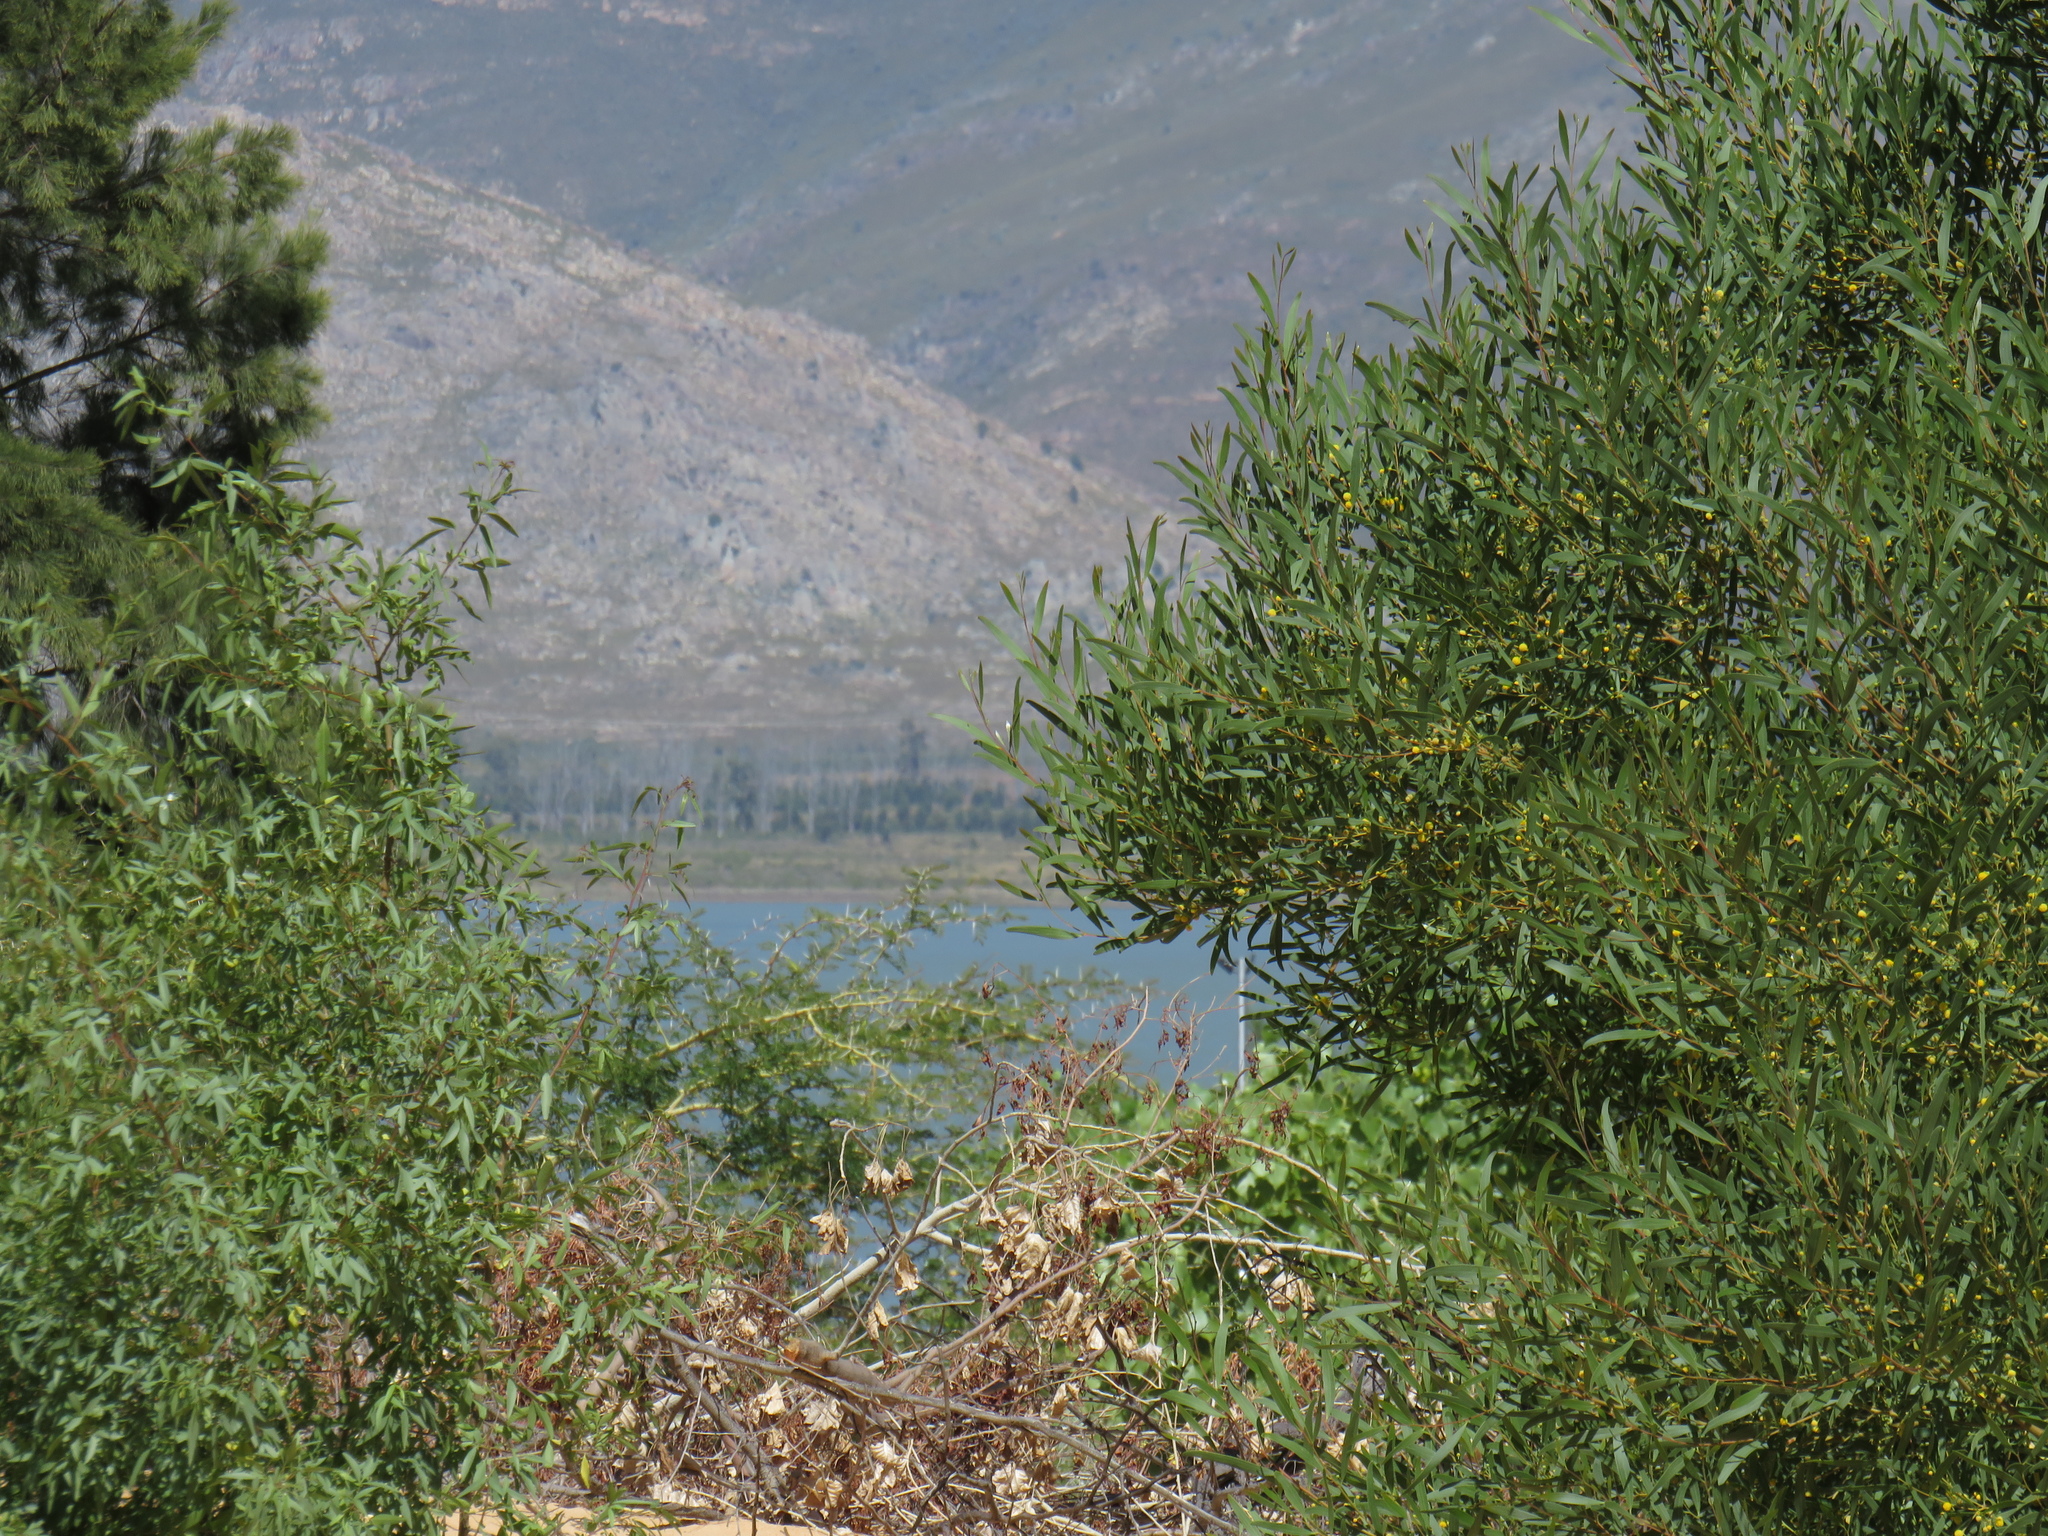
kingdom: Plantae
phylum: Tracheophyta
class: Magnoliopsida
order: Fabales
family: Fabaceae
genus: Acacia
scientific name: Acacia cyclops
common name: Coastal wattle
